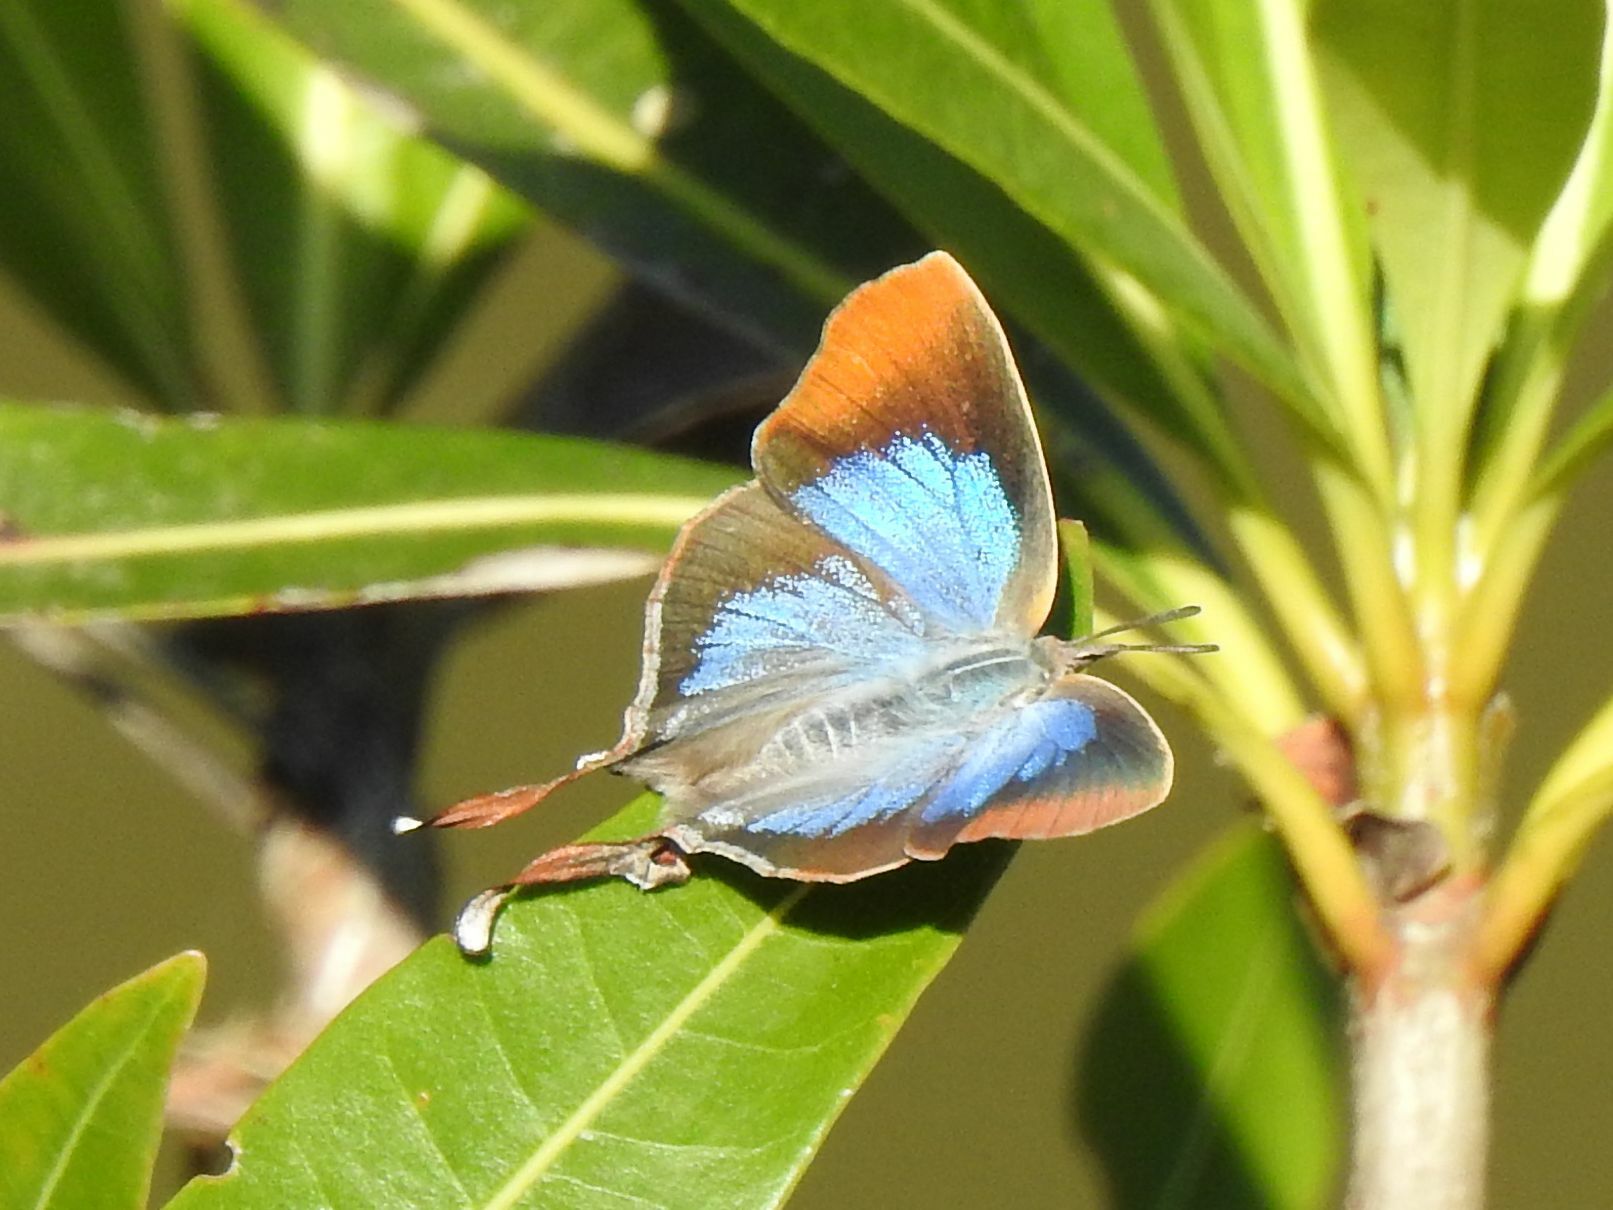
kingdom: Animalia
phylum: Arthropoda
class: Insecta
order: Lepidoptera
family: Lycaenidae
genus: Myrina
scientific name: Myrina silenus
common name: Amber fig-tree blue
